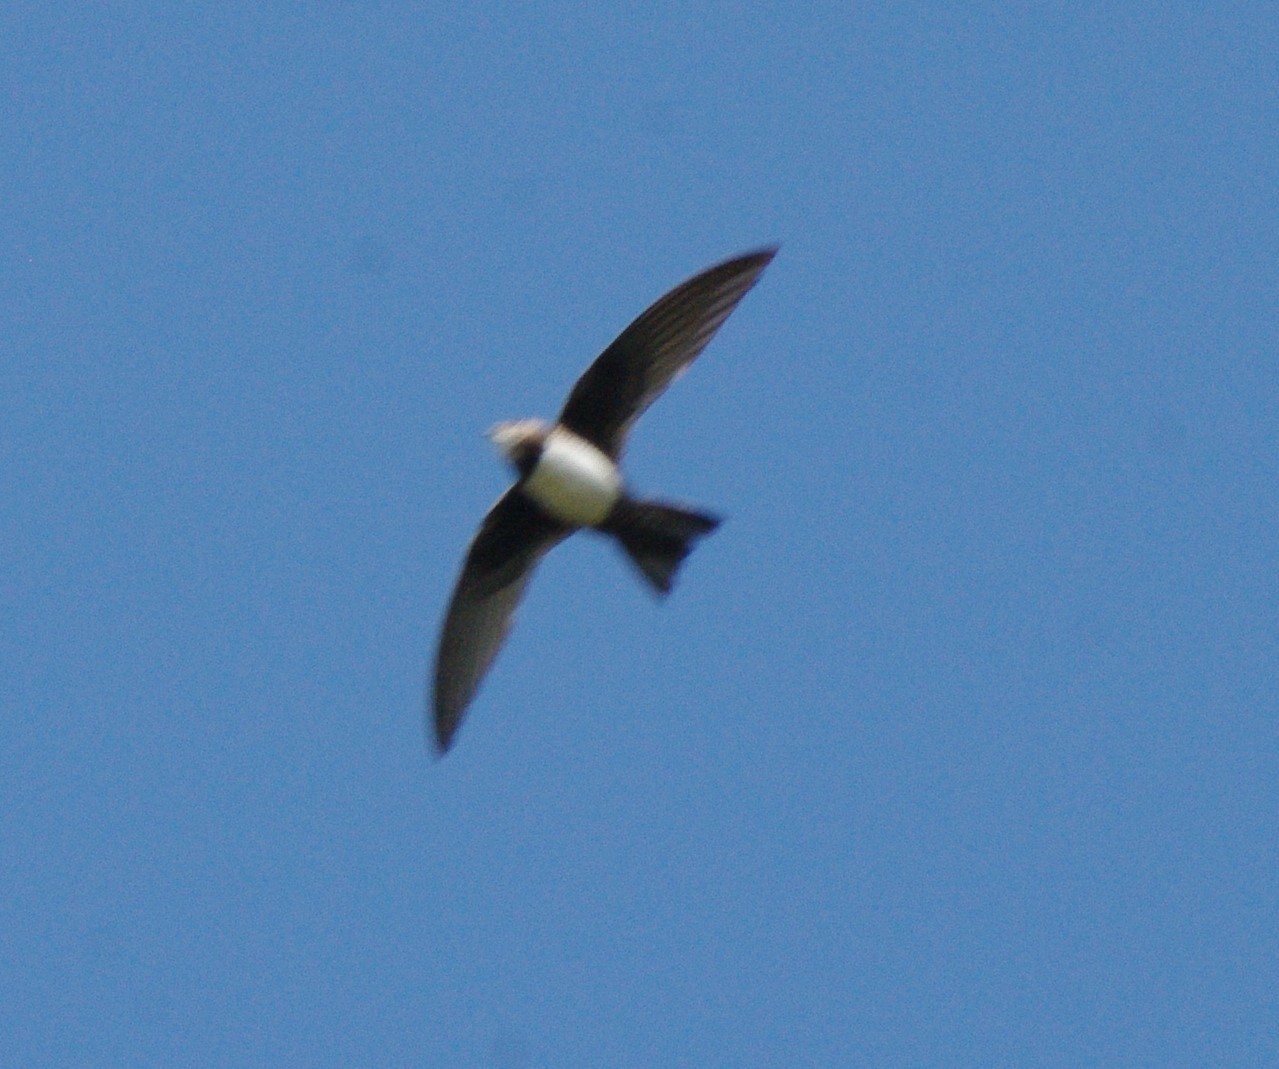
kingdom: Animalia
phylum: Chordata
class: Aves
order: Apodiformes
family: Apodidae
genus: Tachymarptis
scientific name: Tachymarptis melba
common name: Alpine swift
